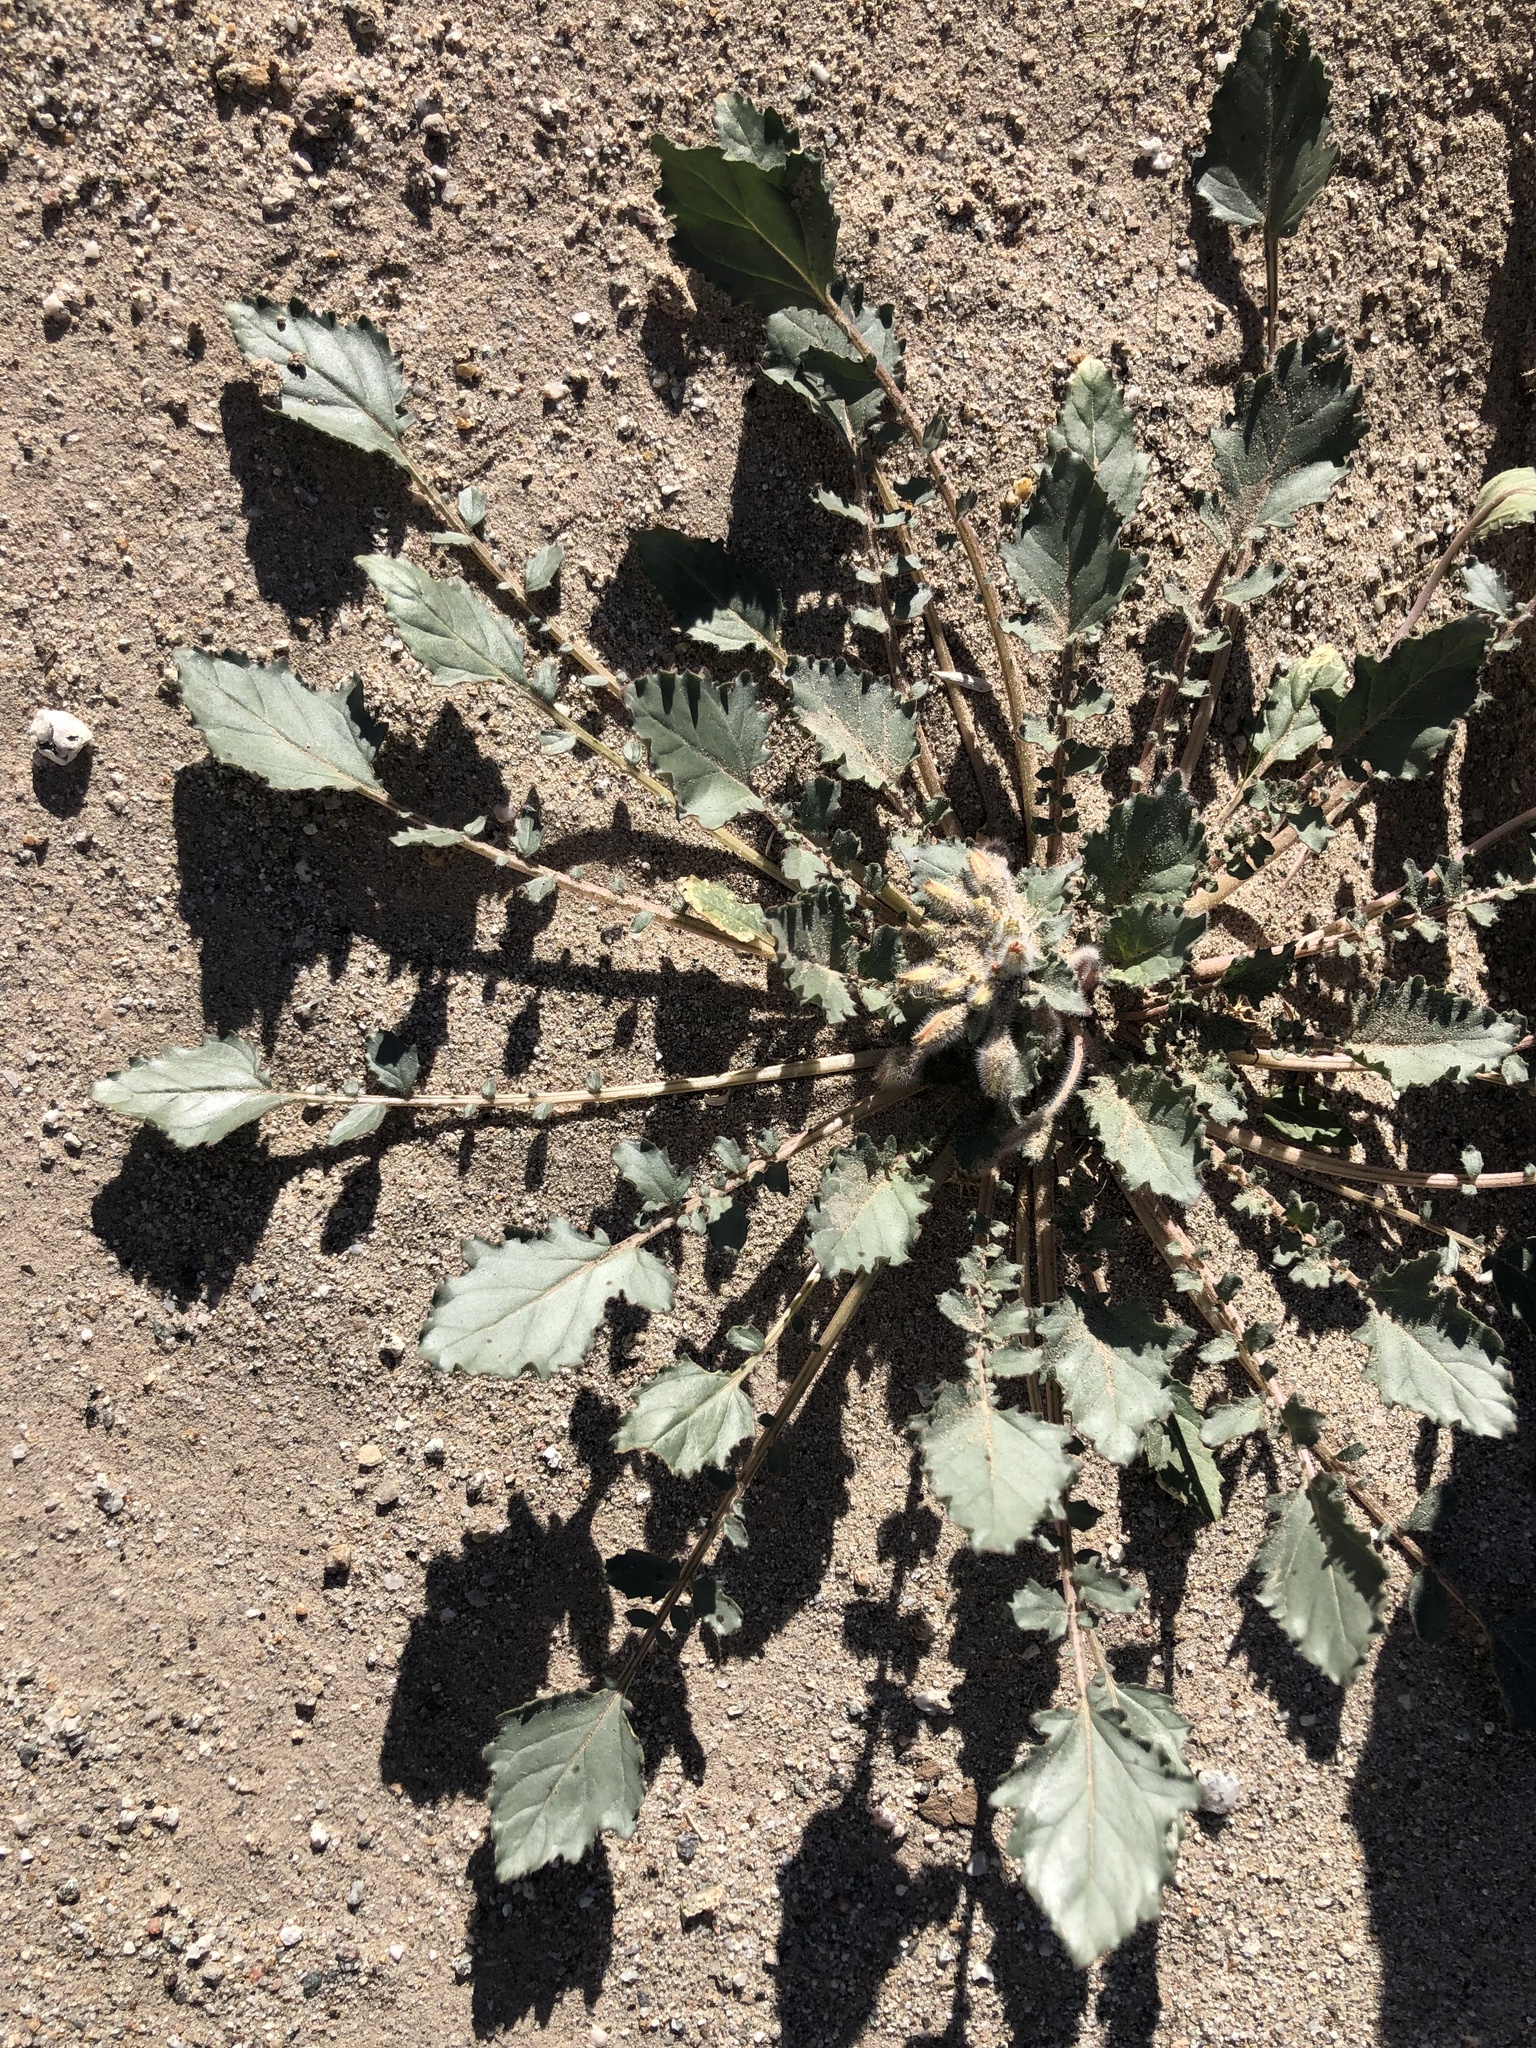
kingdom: Plantae
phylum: Tracheophyta
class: Magnoliopsida
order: Myrtales
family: Onagraceae
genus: Chylismia
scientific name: Chylismia claviformis
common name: Browneyes
